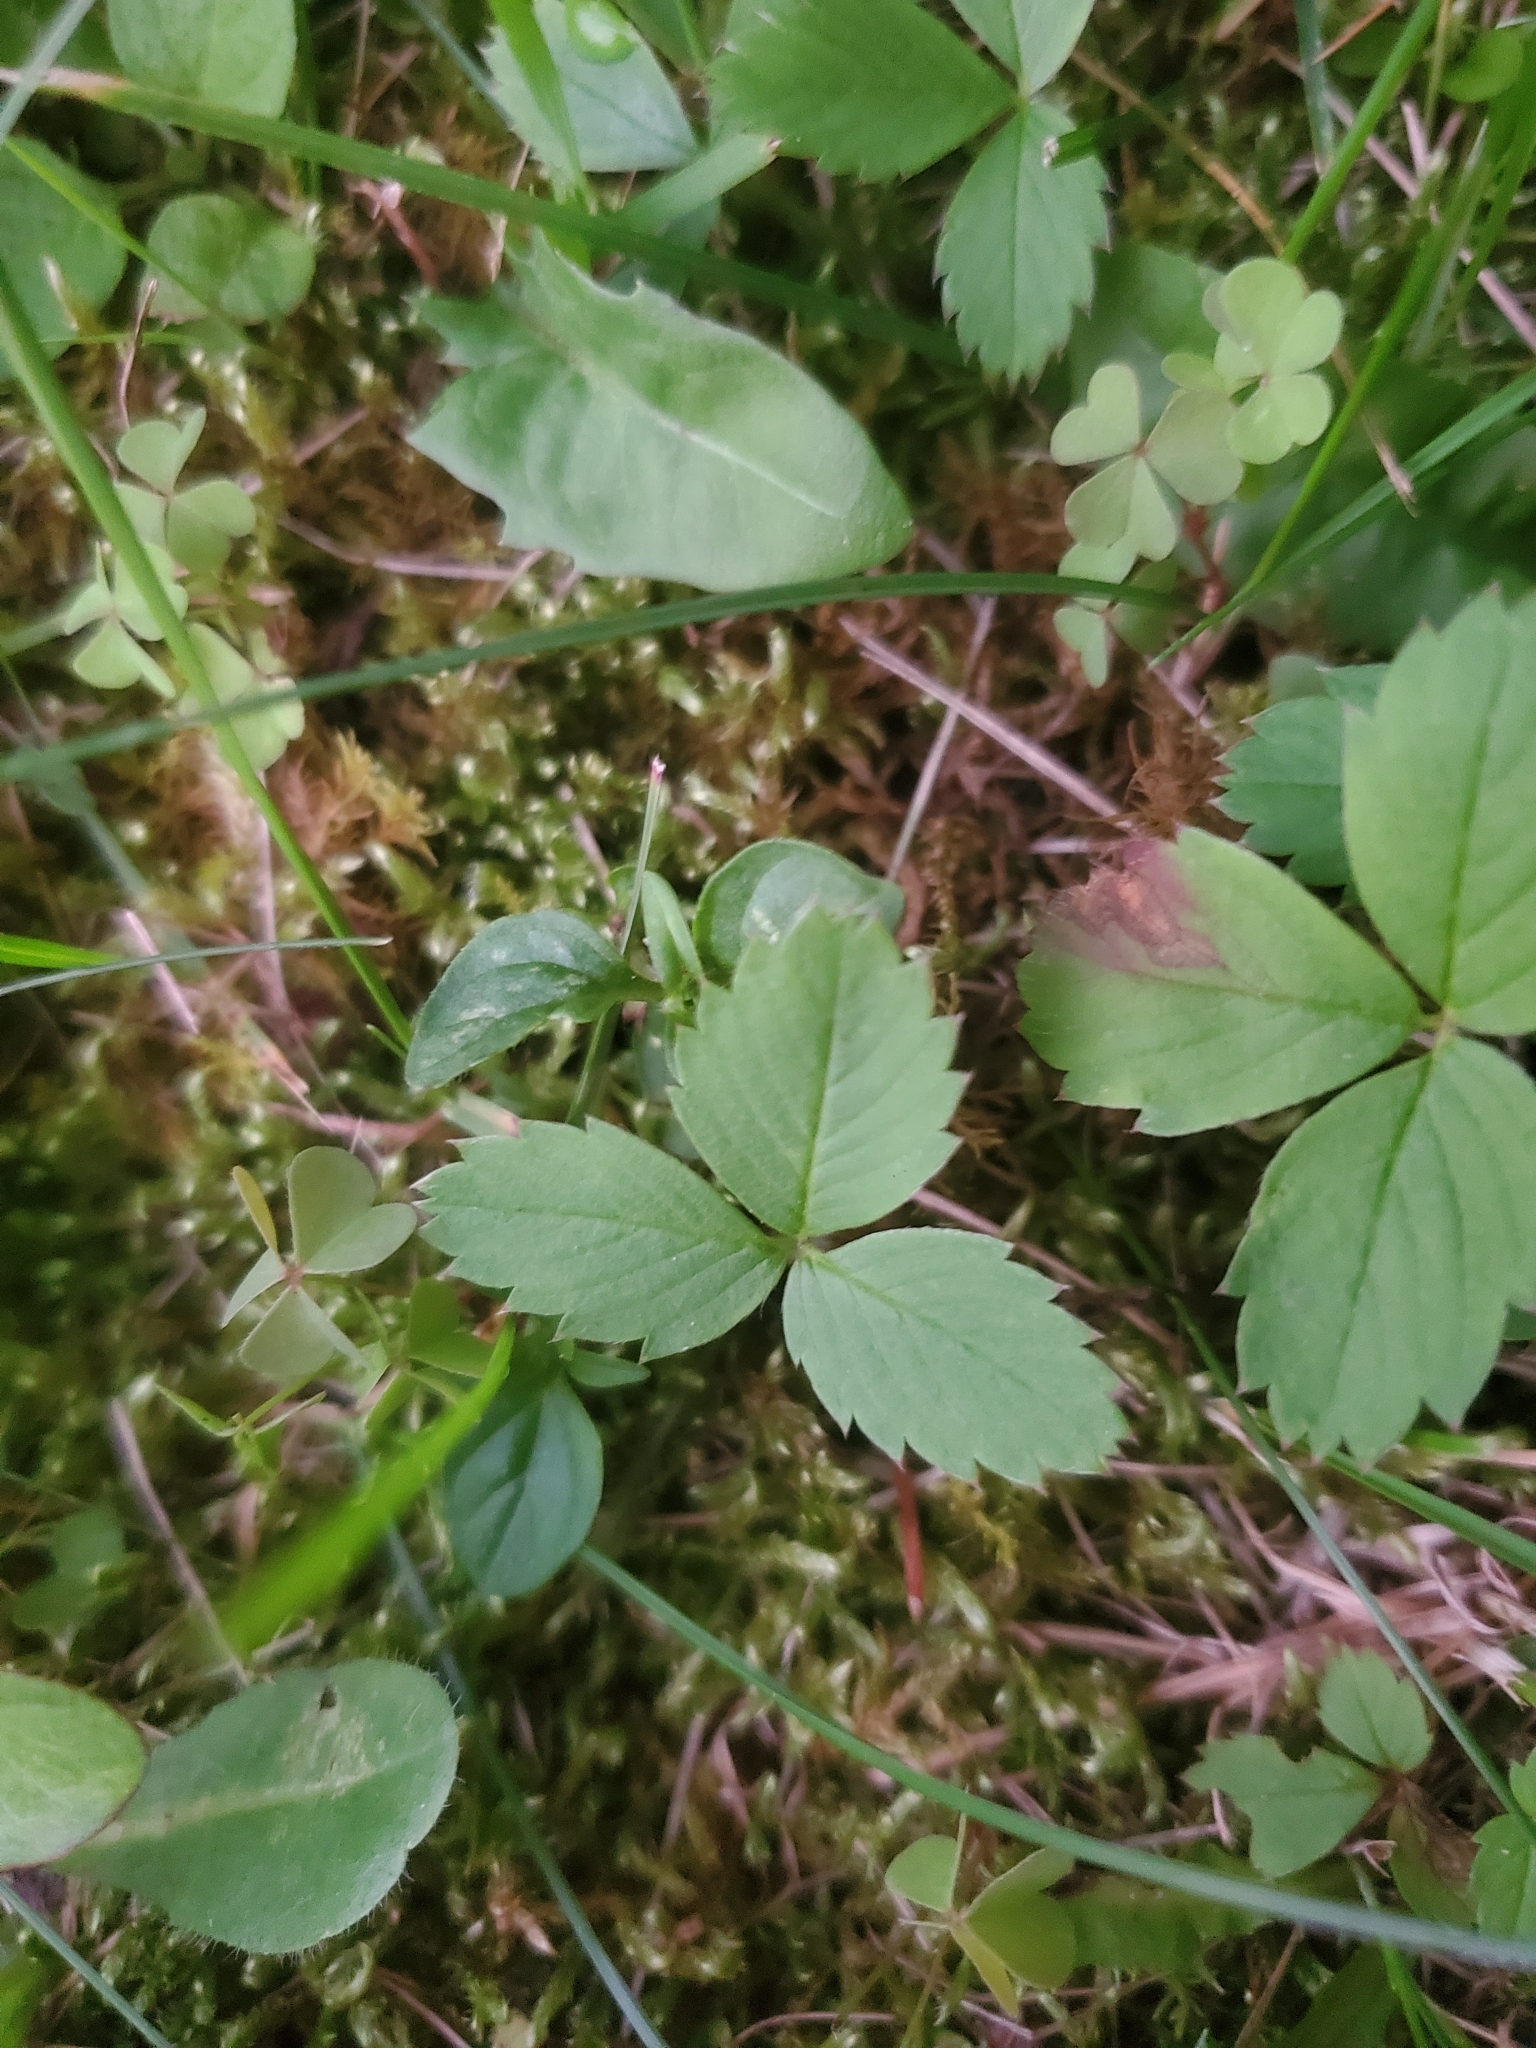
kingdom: Plantae
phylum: Tracheophyta
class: Magnoliopsida
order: Rosales
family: Rosaceae
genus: Fragaria
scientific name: Fragaria virginiana
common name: Thickleaved wild strawberry
